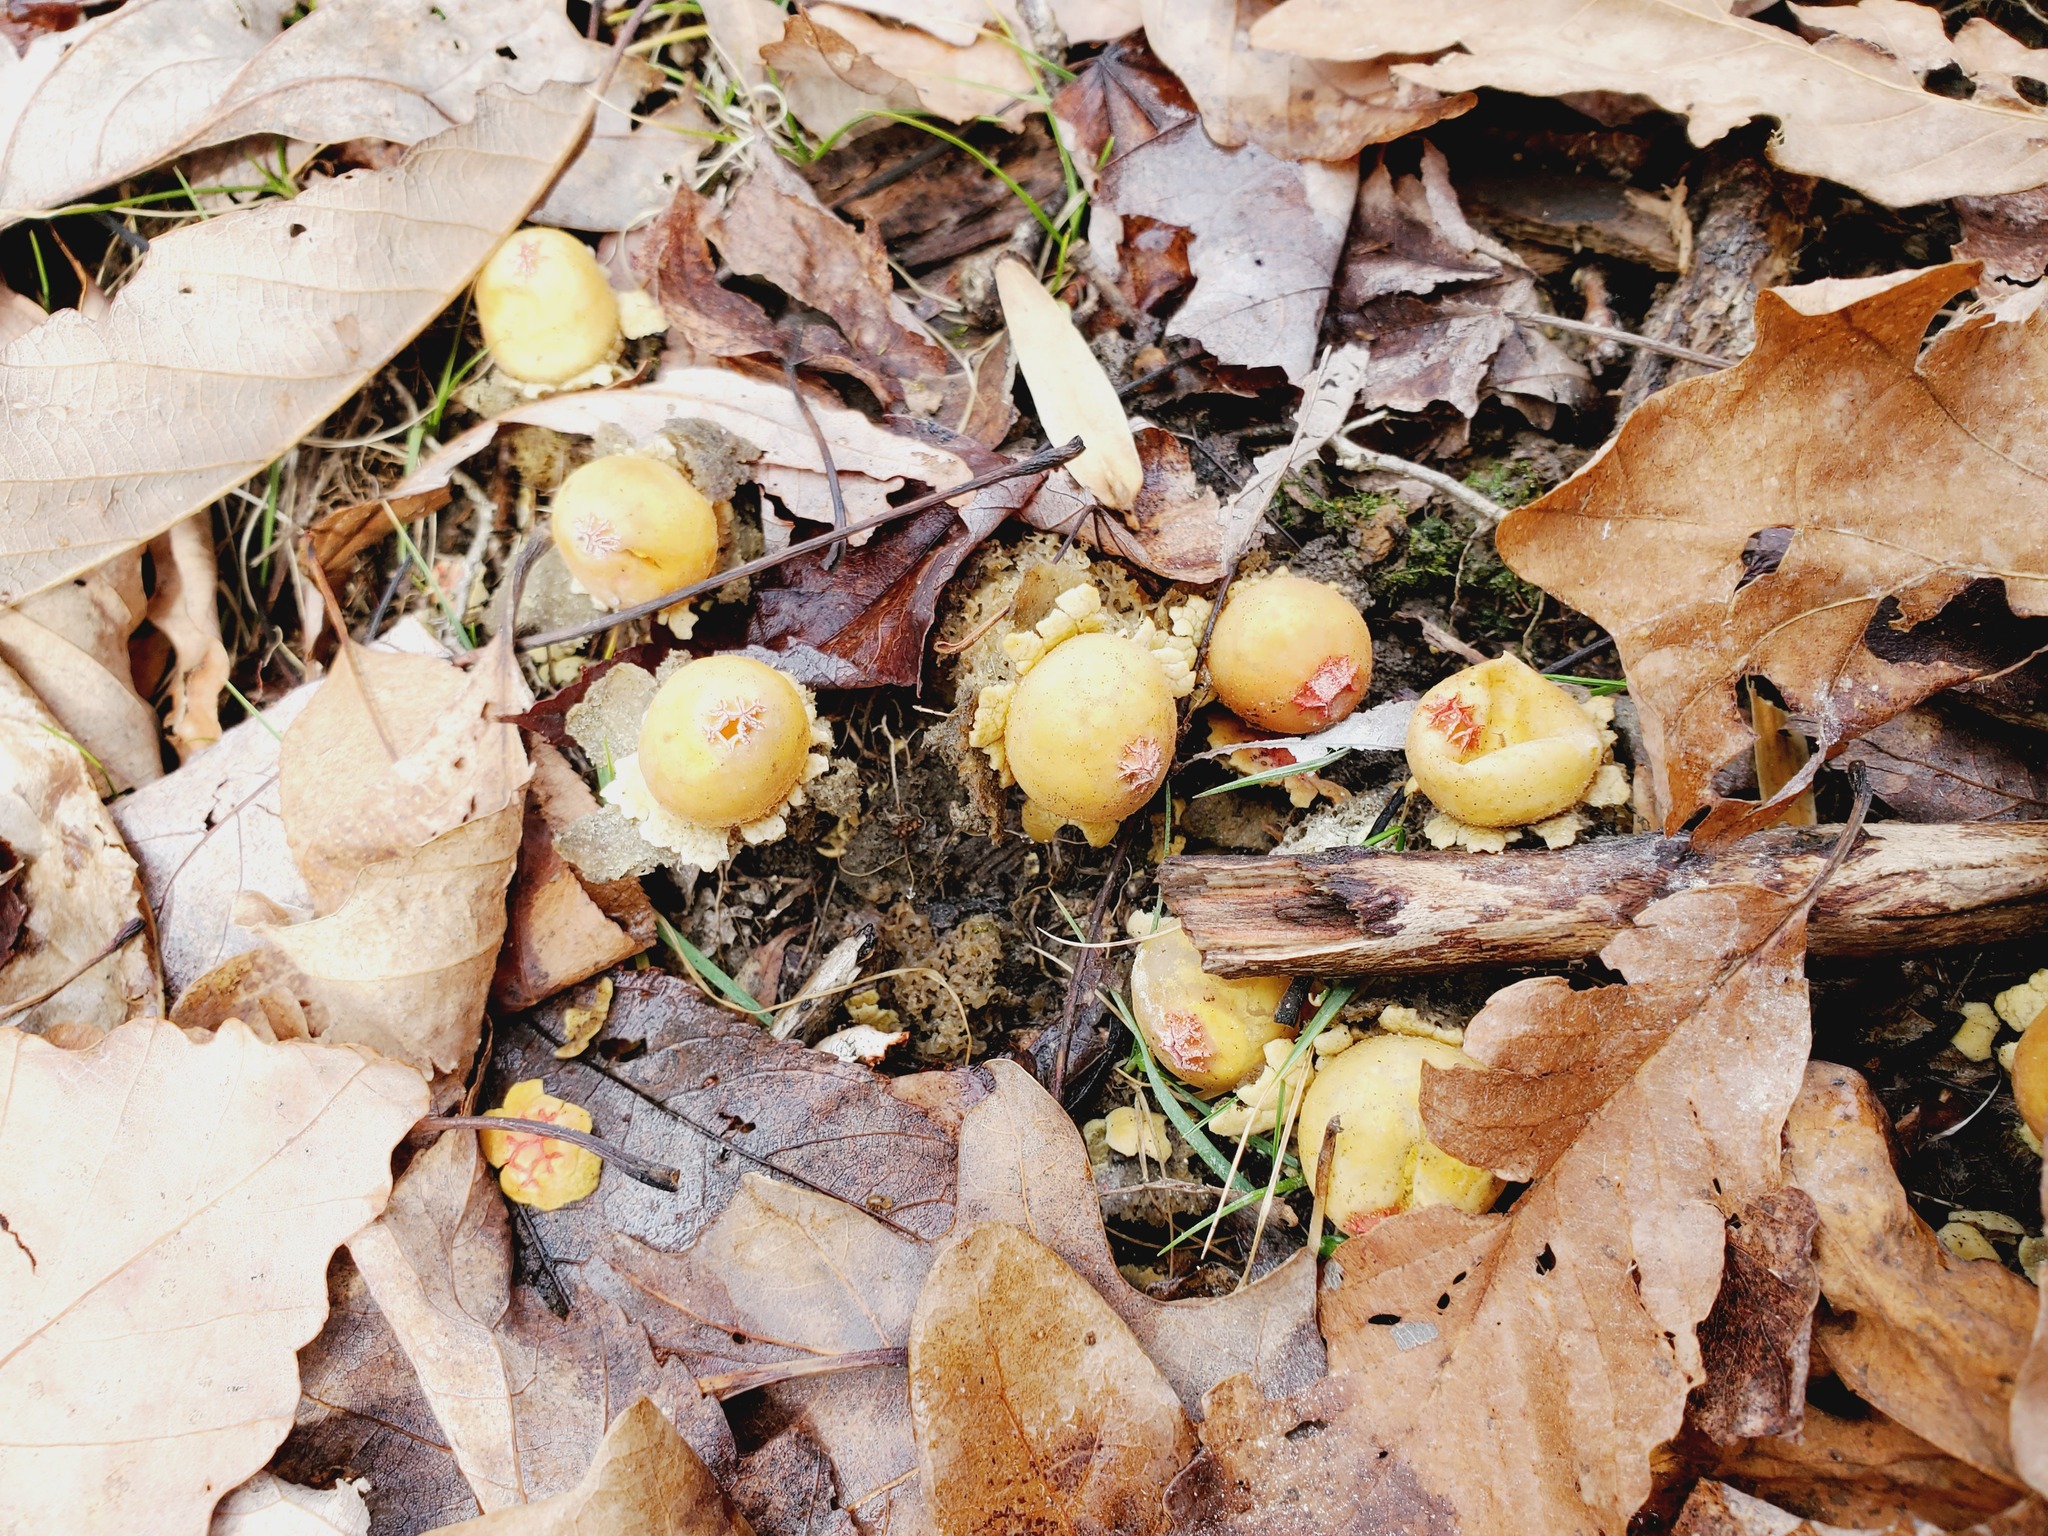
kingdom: Fungi
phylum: Basidiomycota
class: Agaricomycetes
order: Boletales
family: Calostomataceae
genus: Calostoma
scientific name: Calostoma lutescens
